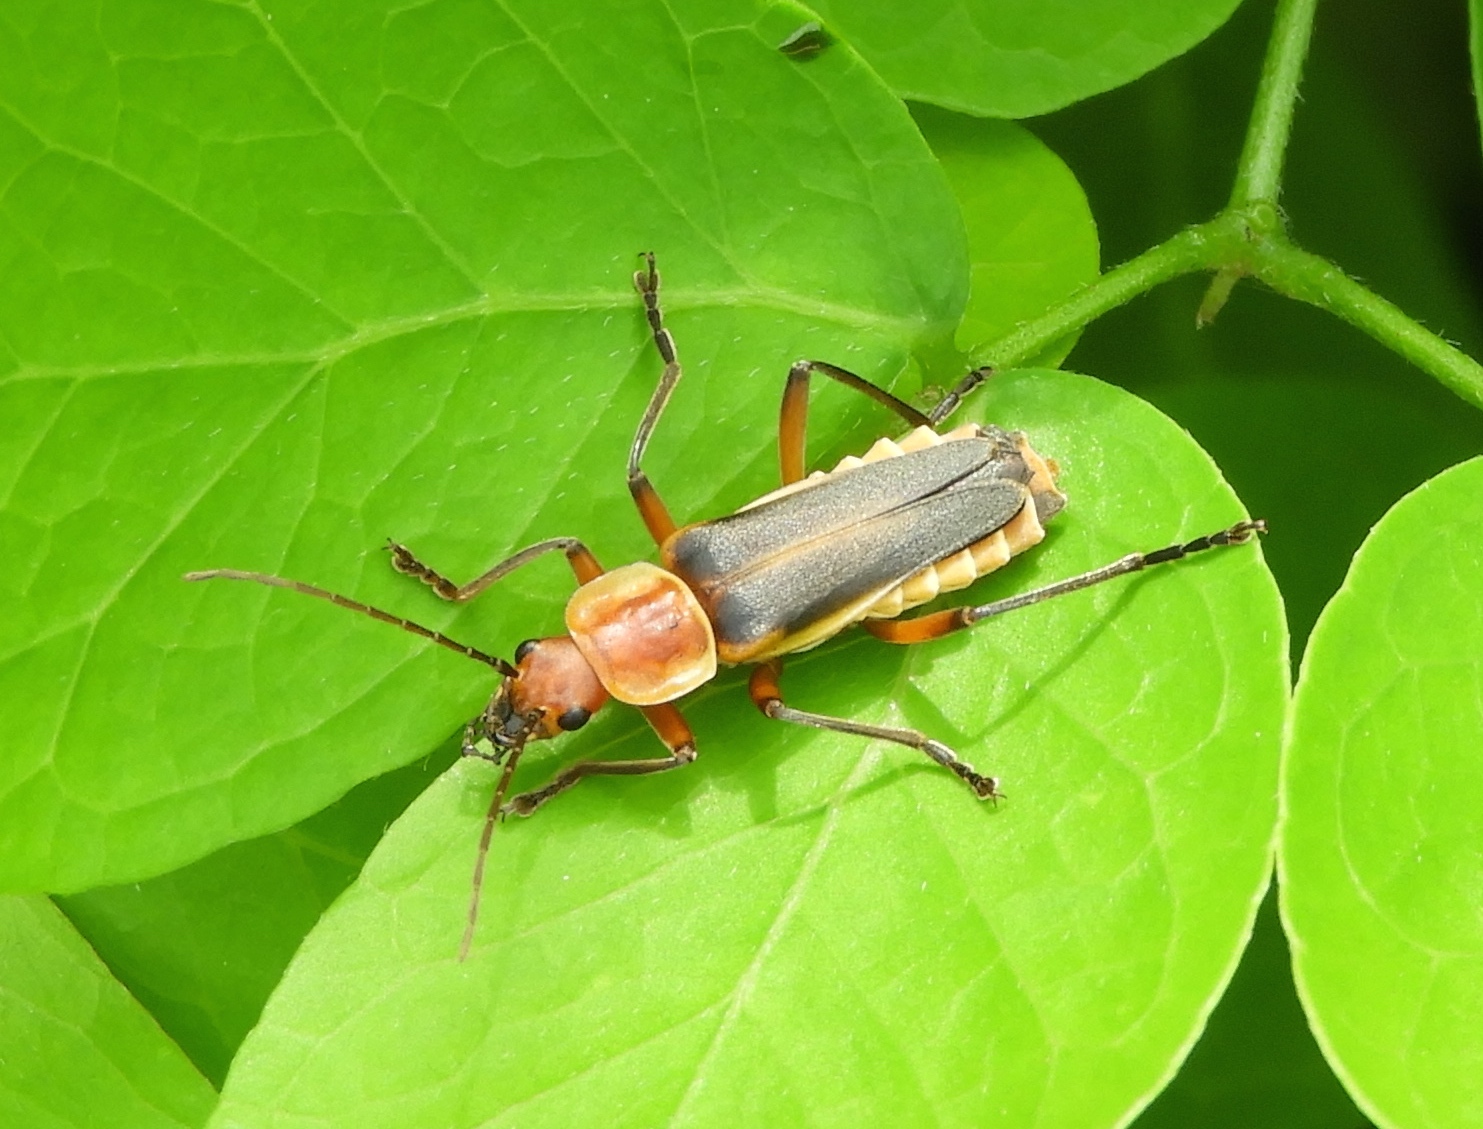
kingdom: Animalia
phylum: Arthropoda
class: Insecta
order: Coleoptera
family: Cantharidae
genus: Chauliognathus
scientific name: Chauliognathus
